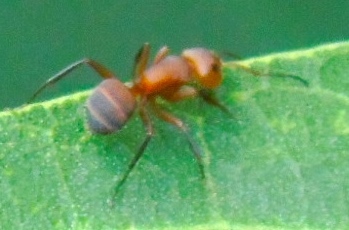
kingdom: Animalia
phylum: Arthropoda
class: Insecta
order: Hymenoptera
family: Formicidae
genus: Camponotus
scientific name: Camponotus rectangularis
